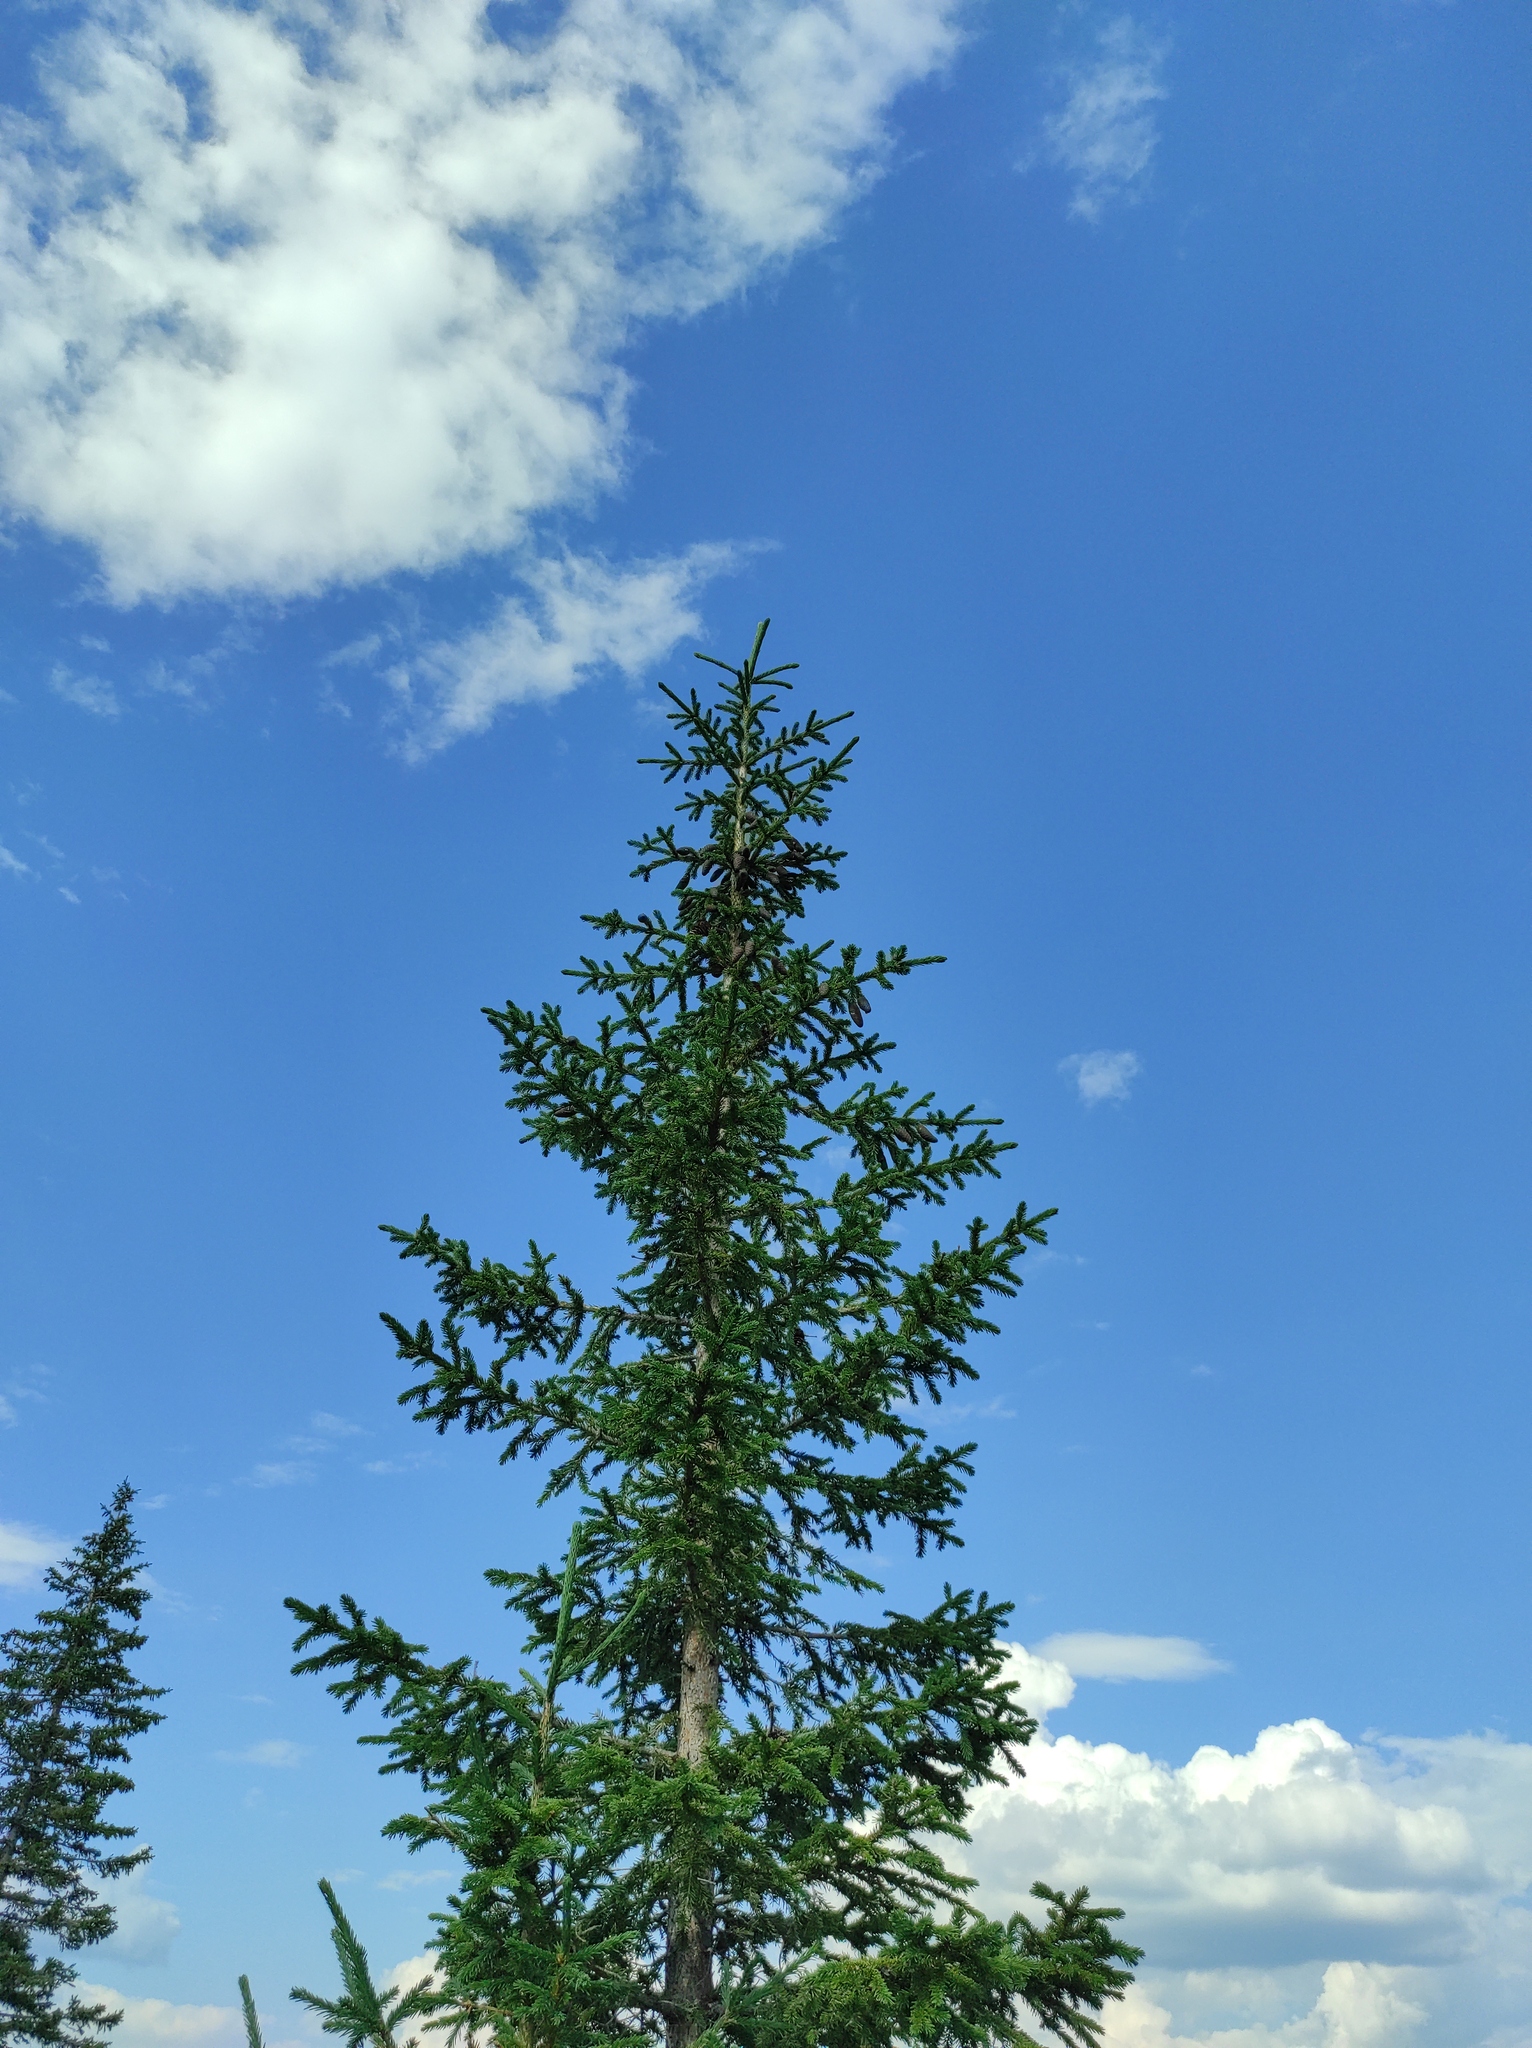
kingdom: Plantae
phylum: Tracheophyta
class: Pinopsida
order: Pinales
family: Pinaceae
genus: Picea
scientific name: Picea obovata
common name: Siberian spruce
